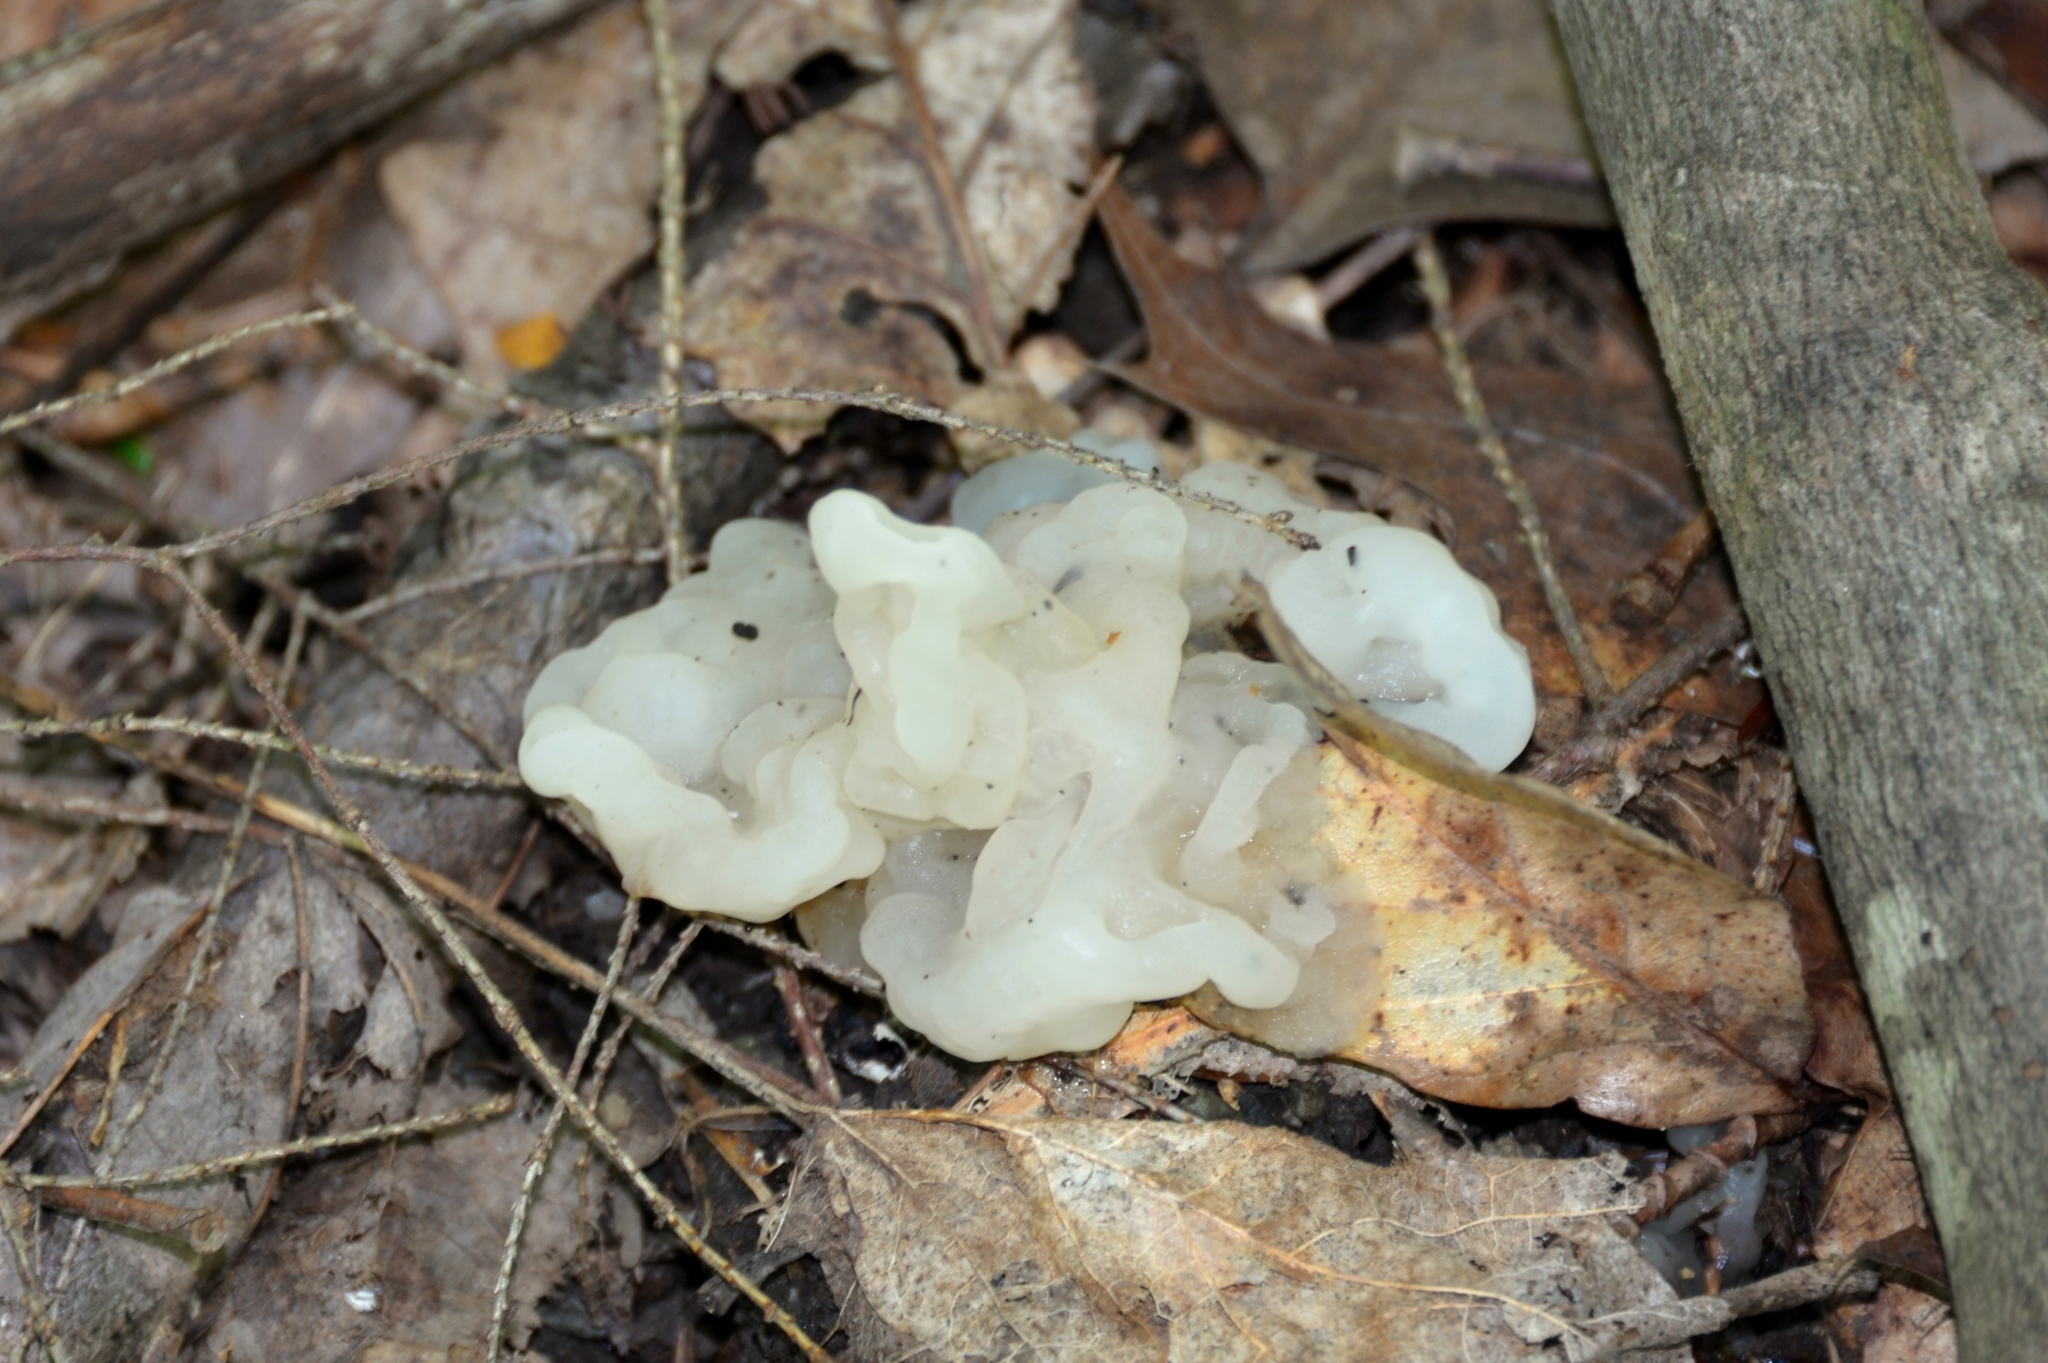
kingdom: Fungi
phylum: Basidiomycota
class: Tremellomycetes
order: Tremellales
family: Tremellaceae
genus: Tremella
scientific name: Tremella fuciformis
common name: Snow fungus
